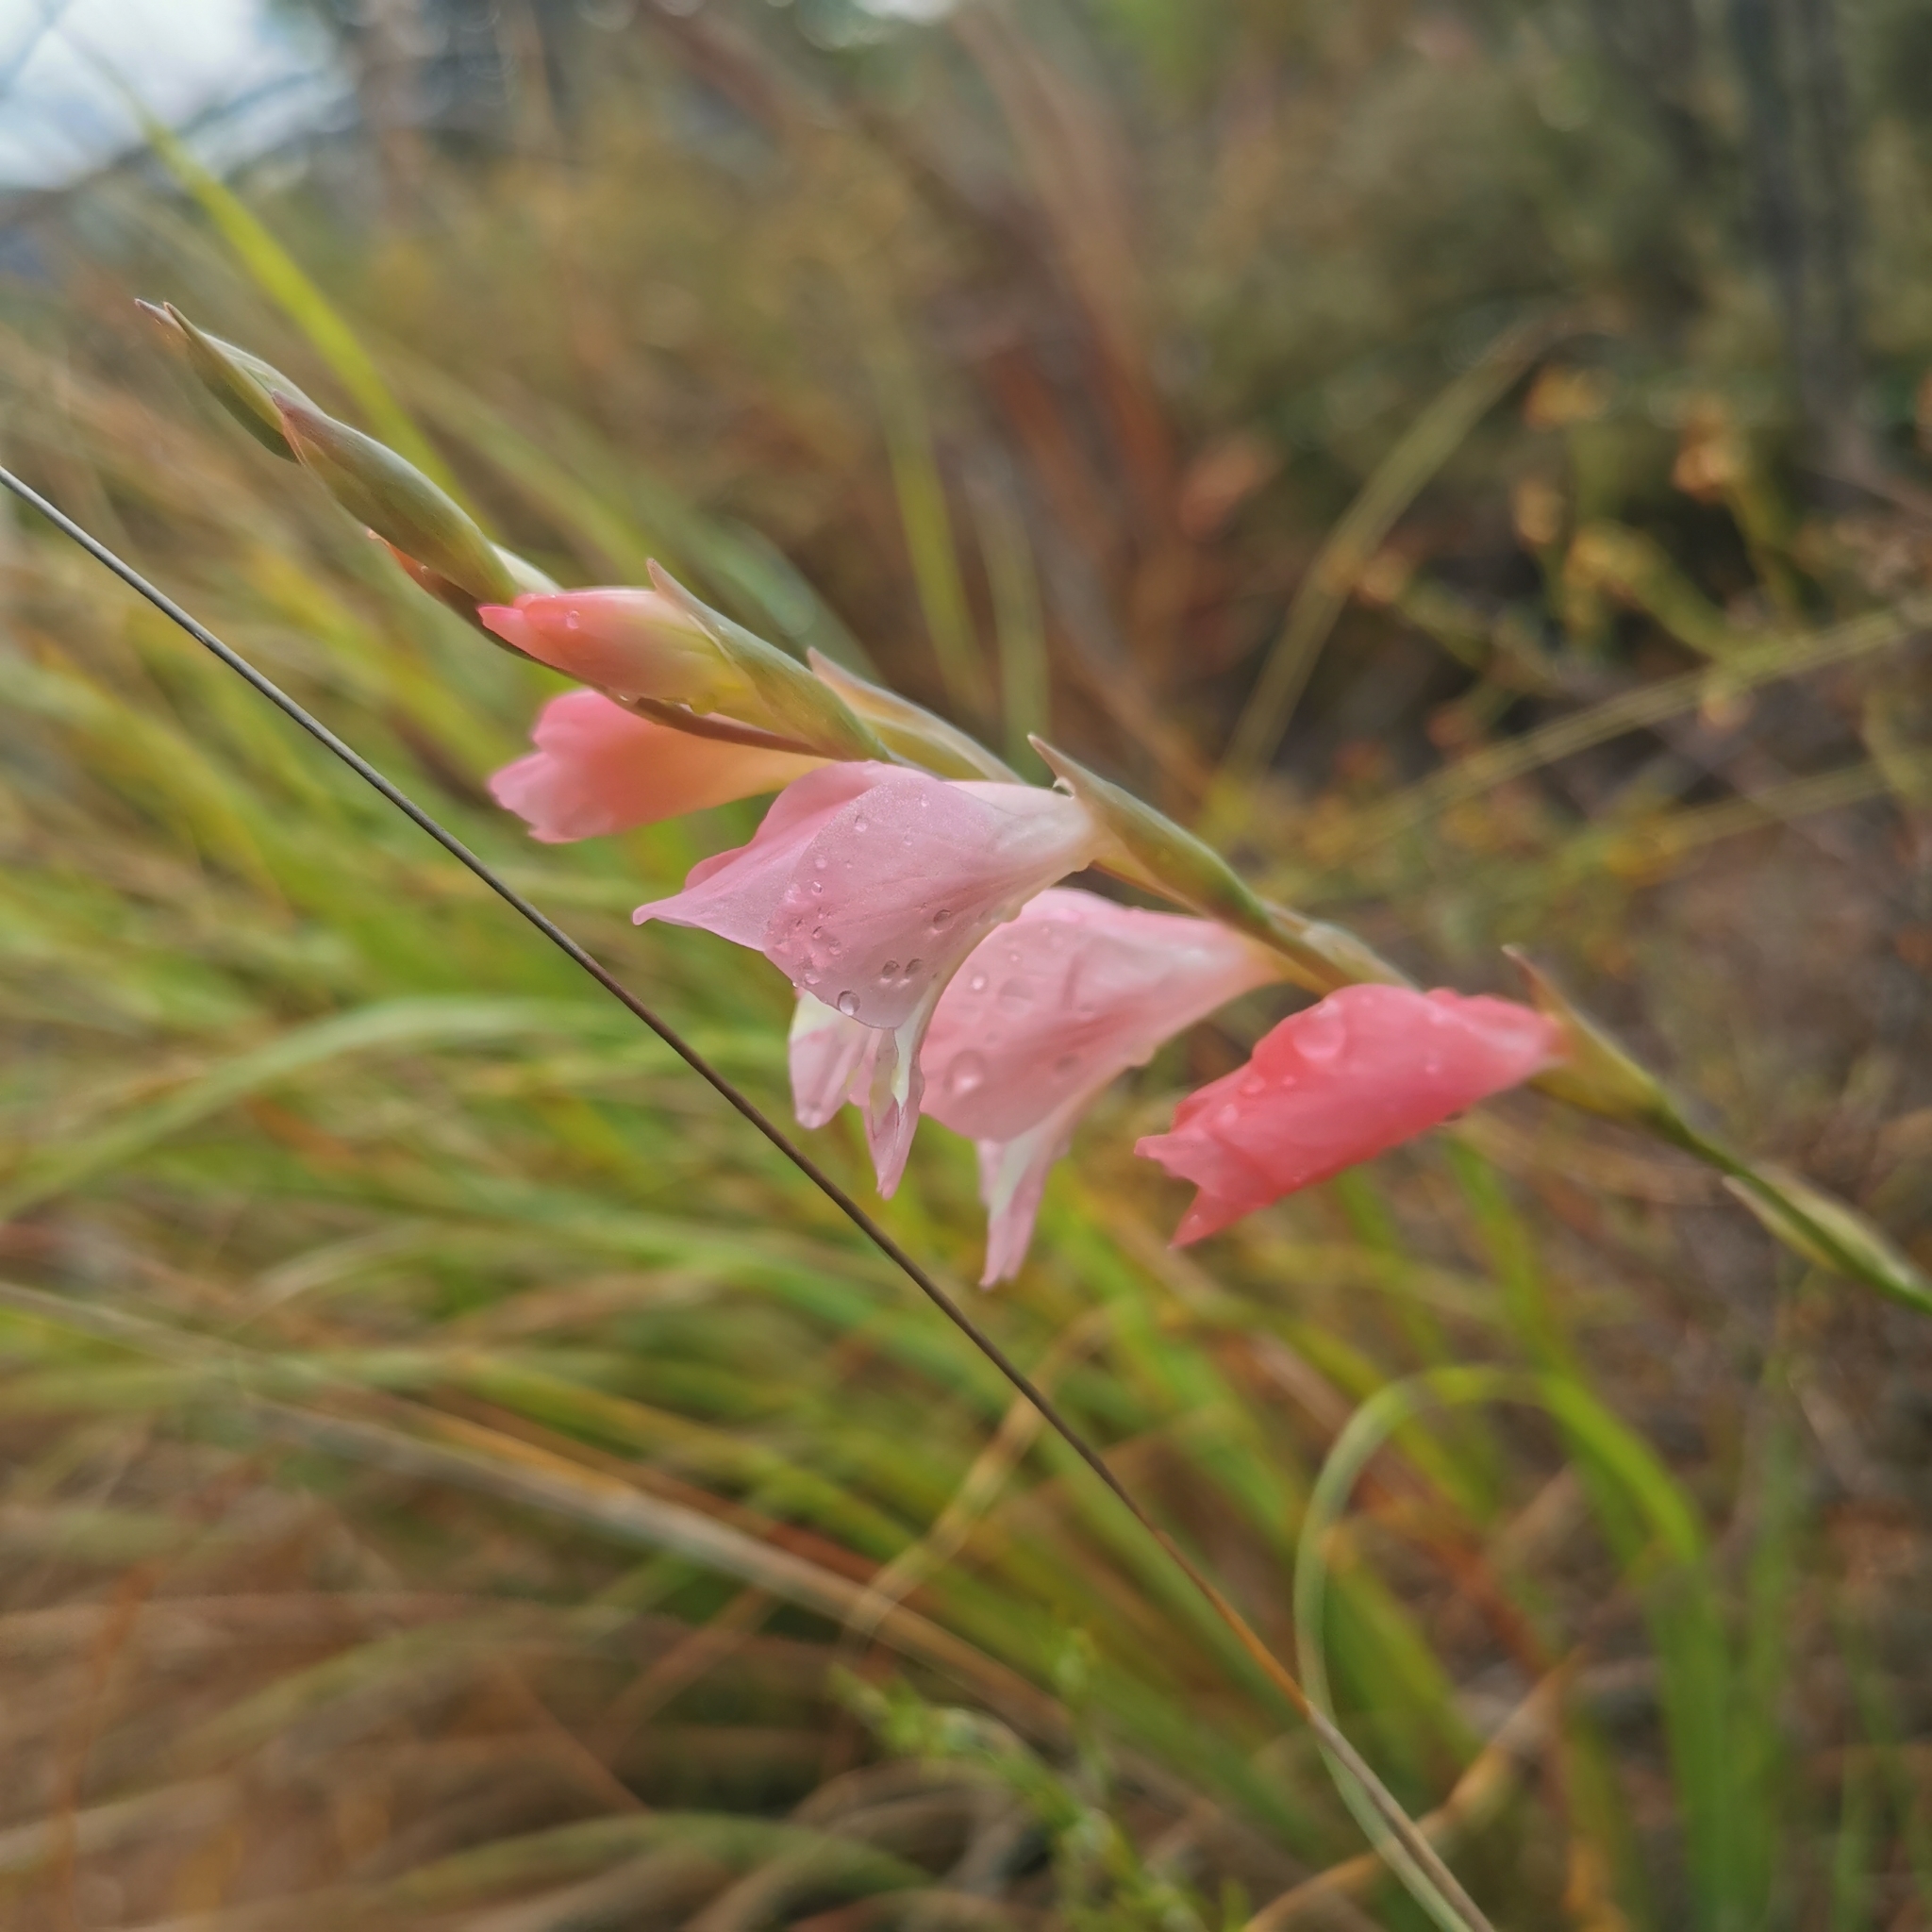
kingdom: Plantae
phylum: Tracheophyta
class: Liliopsida
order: Asparagales
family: Iridaceae
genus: Gladiolus
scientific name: Gladiolus brevifolius
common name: March pypie
